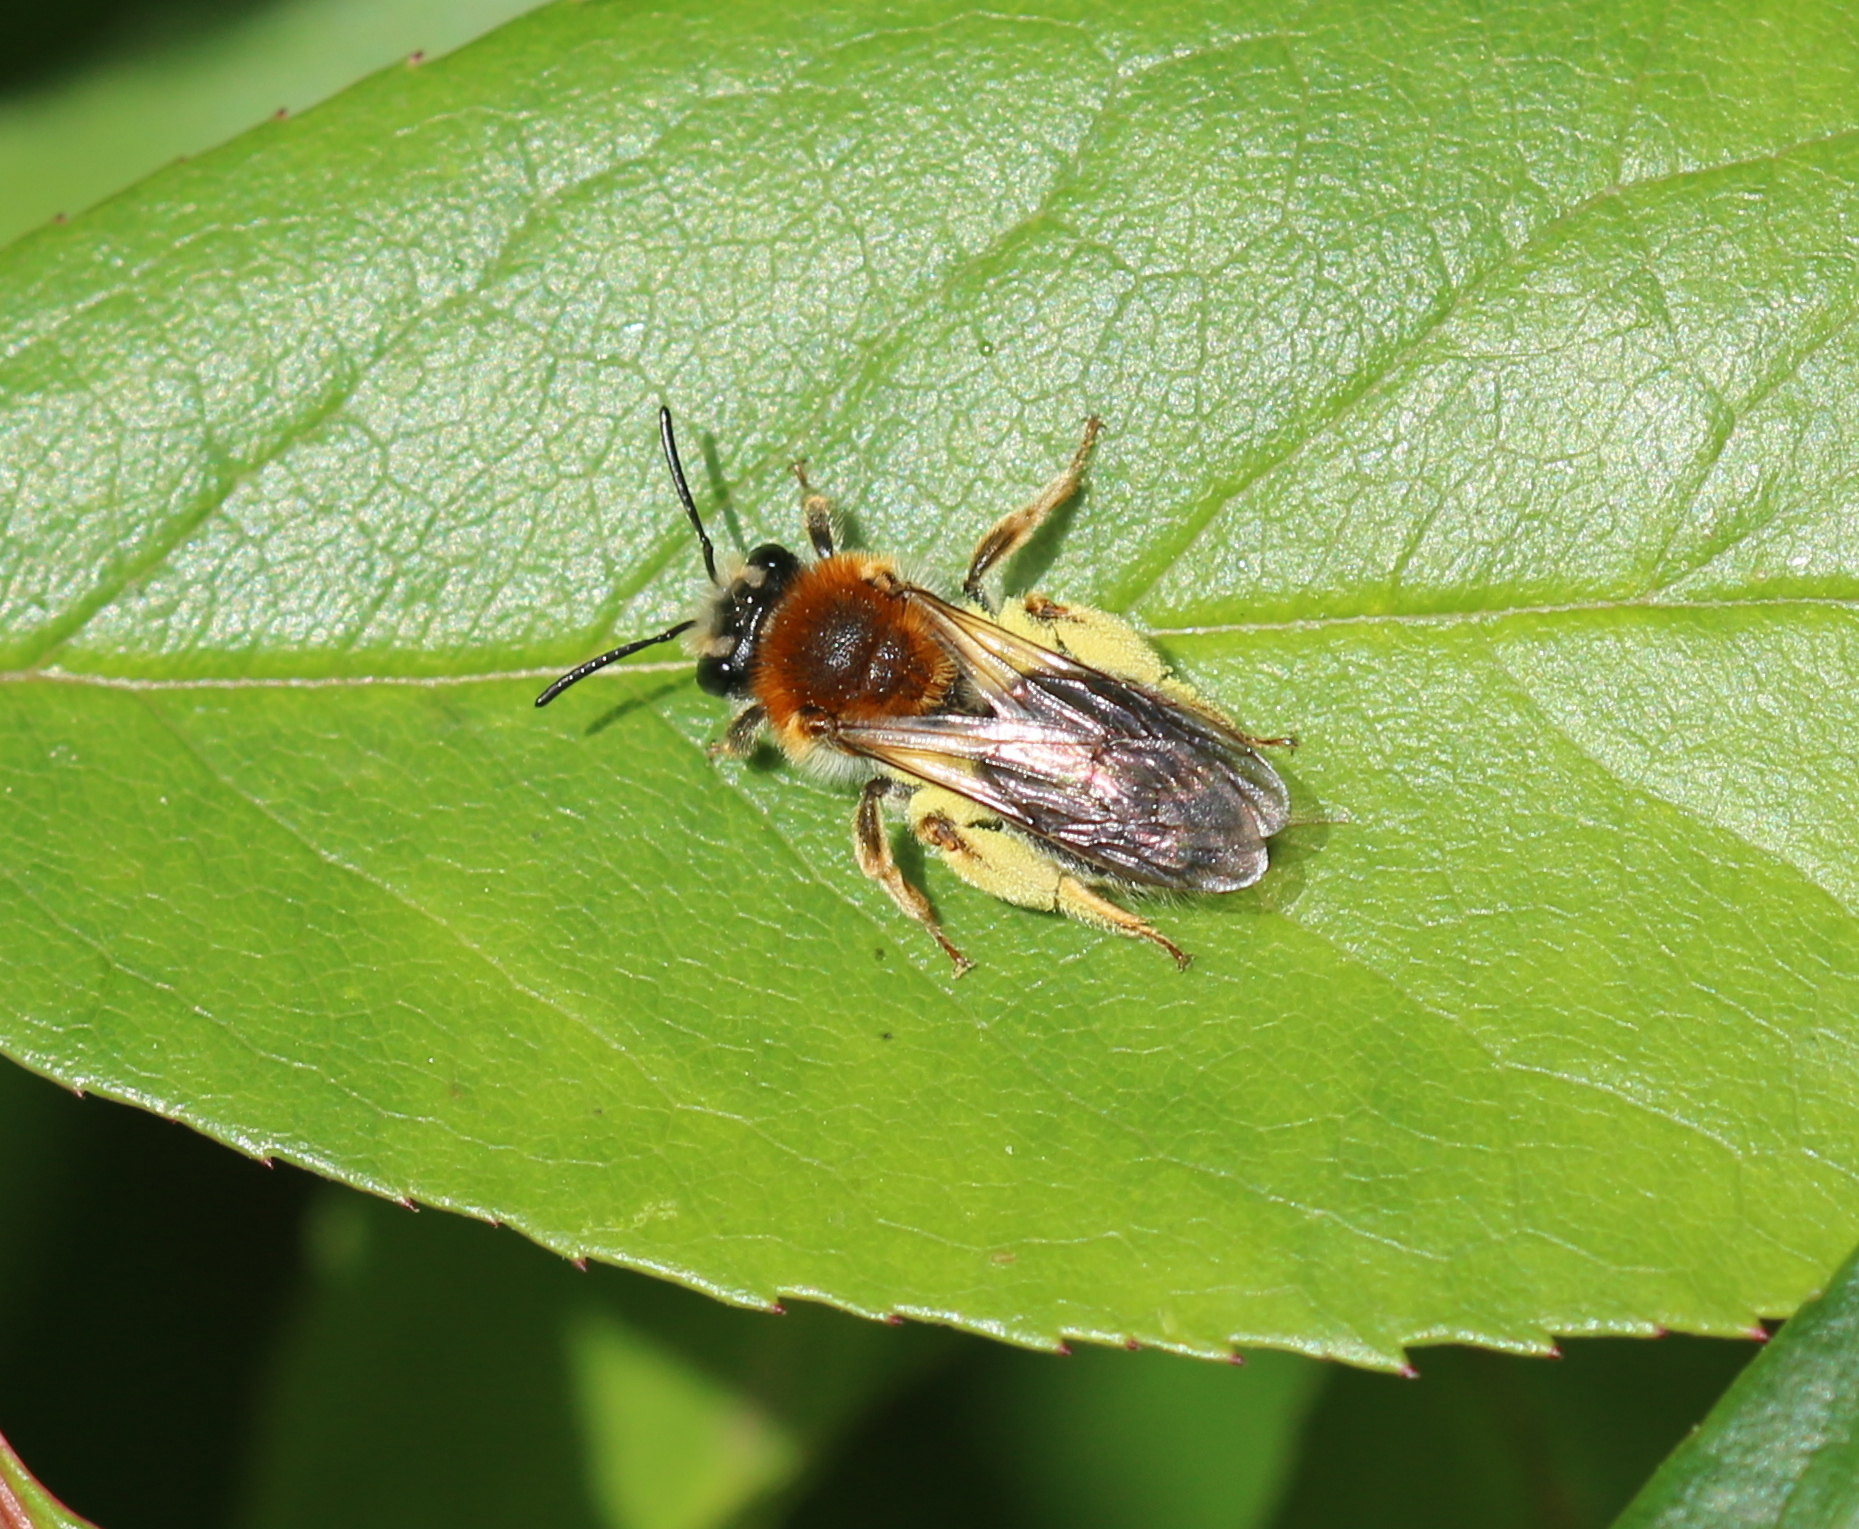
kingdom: Animalia
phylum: Arthropoda
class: Insecta
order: Hymenoptera
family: Andrenidae
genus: Andrena
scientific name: Andrena haemorrhoa
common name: Early mining bee
